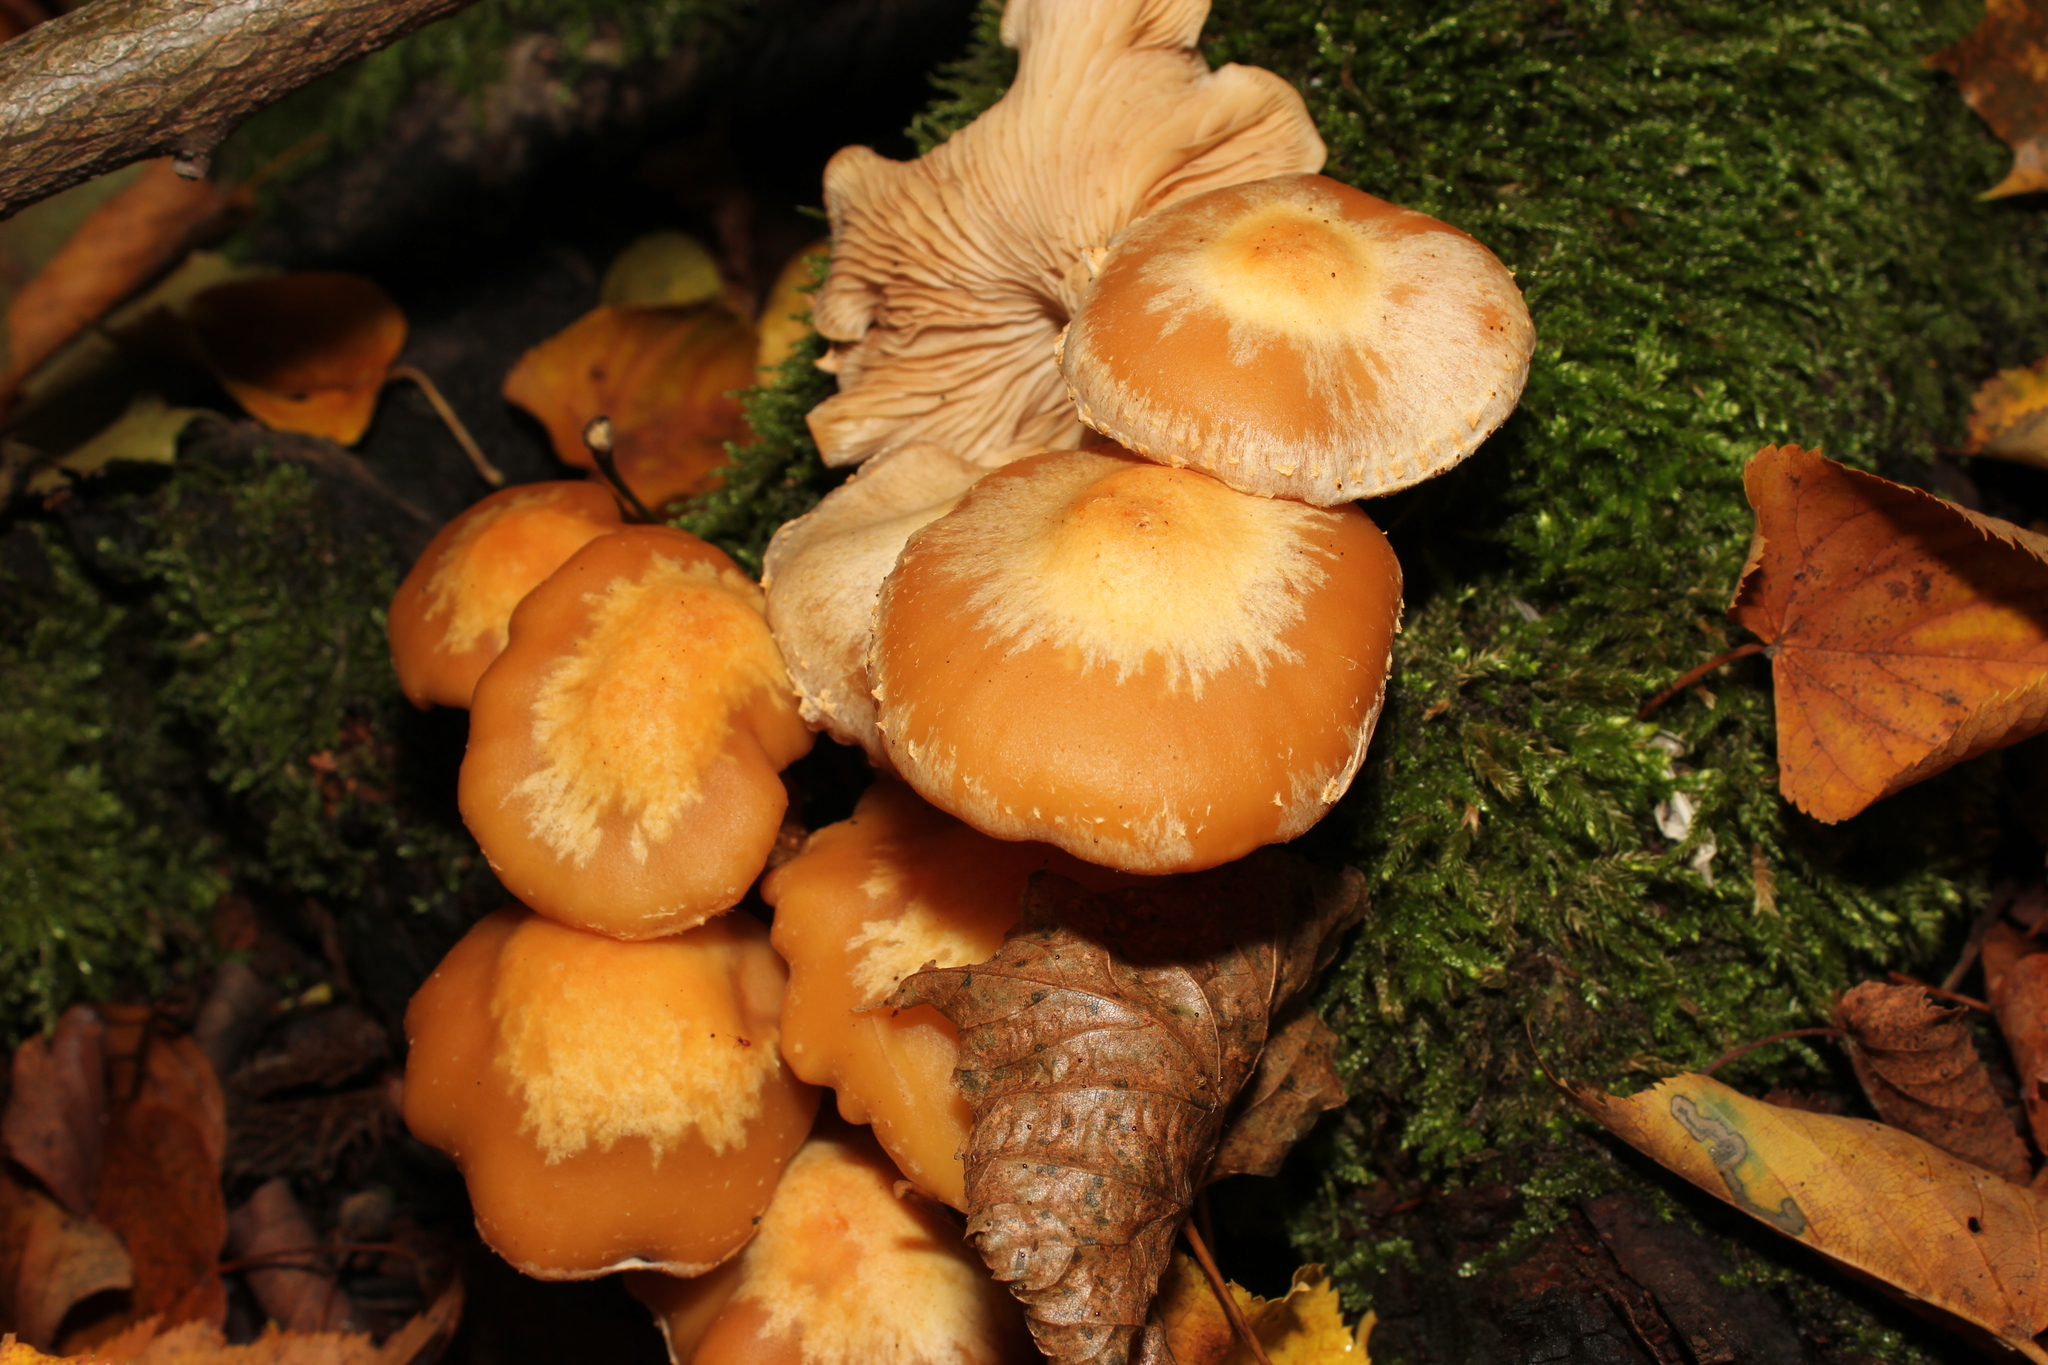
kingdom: Fungi
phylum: Basidiomycota
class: Agaricomycetes
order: Agaricales
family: Strophariaceae
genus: Kuehneromyces
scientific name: Kuehneromyces mutabilis
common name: Sheathed woodtuft
